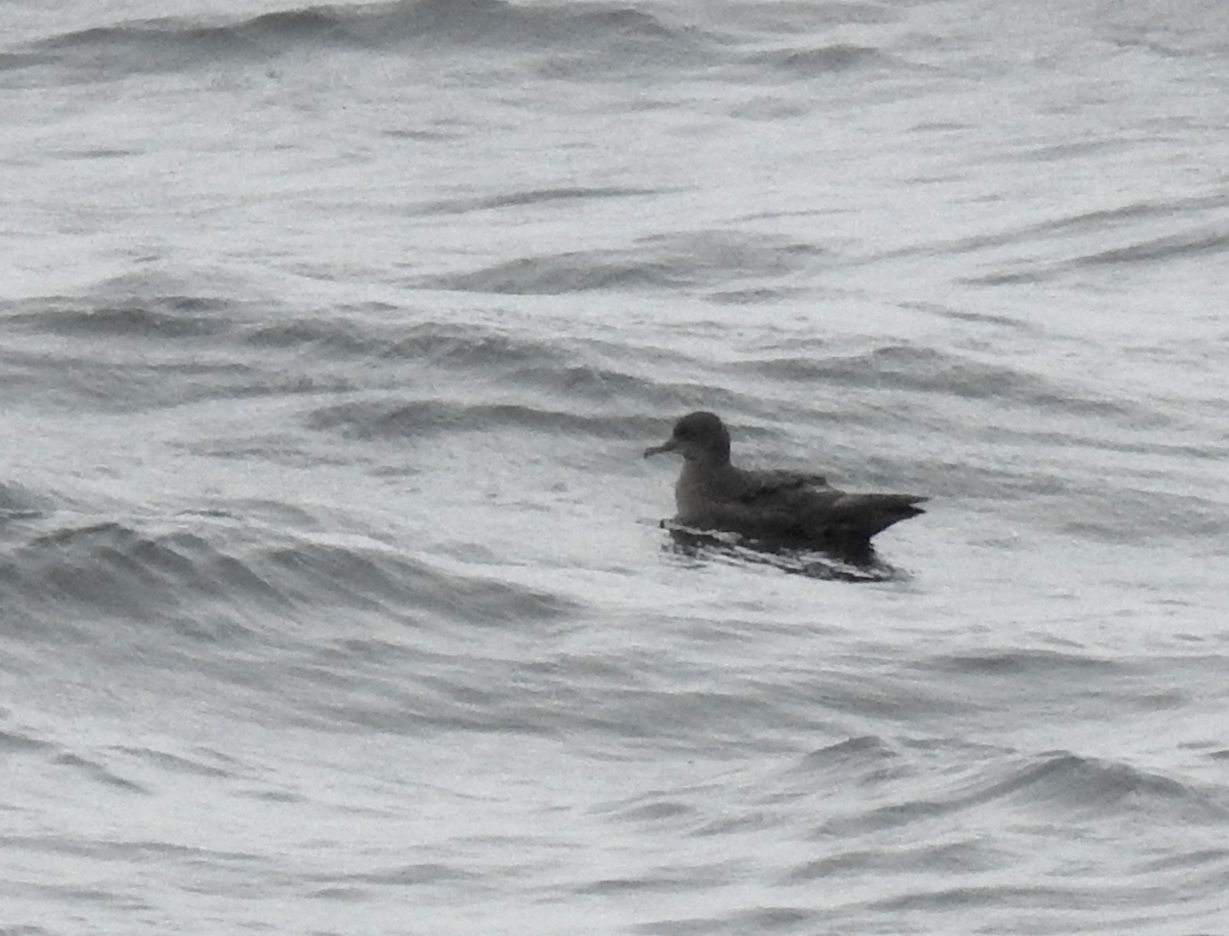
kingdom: Animalia
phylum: Chordata
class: Aves
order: Procellariiformes
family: Procellariidae
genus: Puffinus
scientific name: Puffinus griseus
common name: Sooty shearwater
